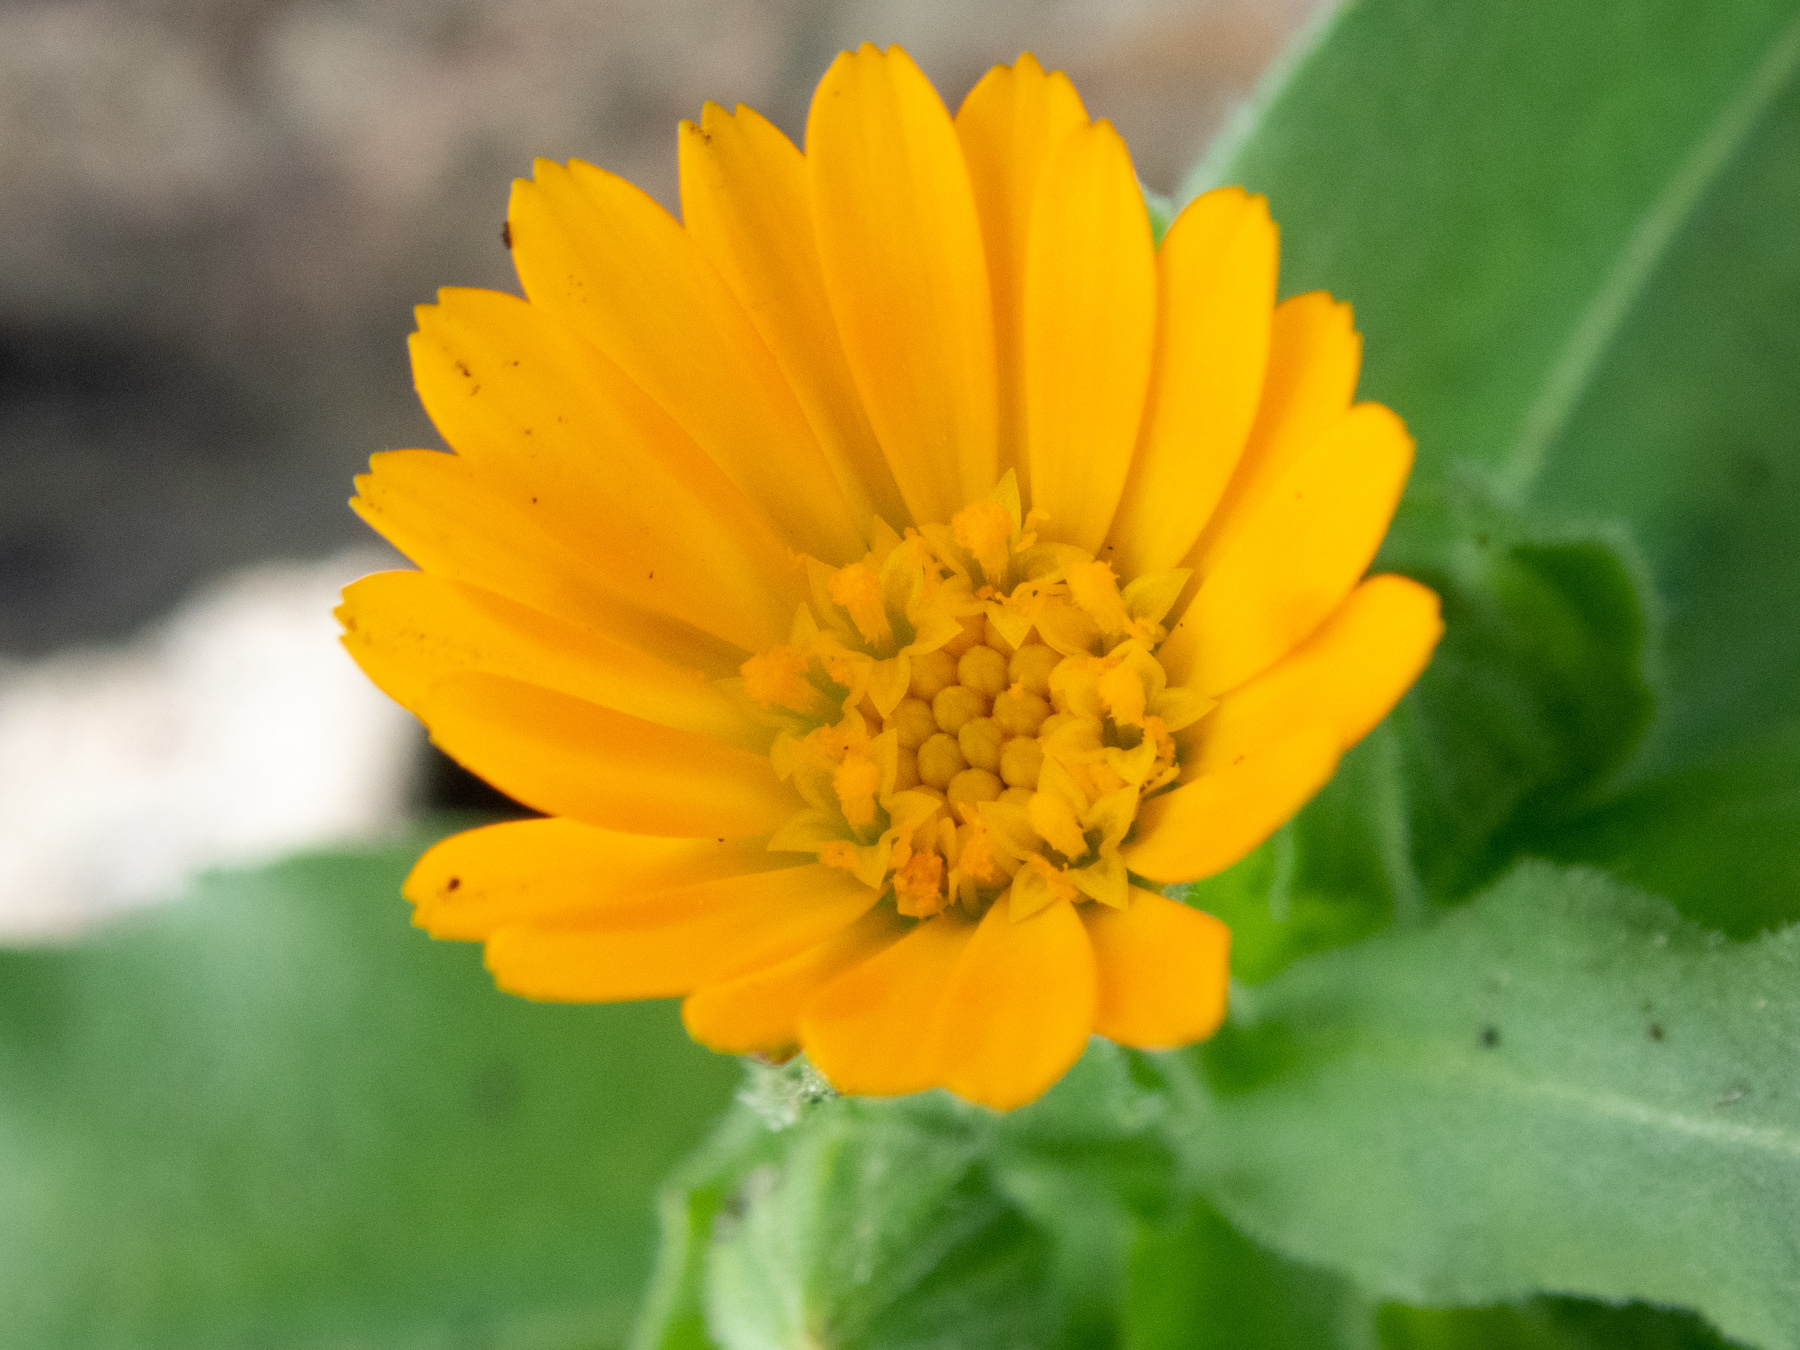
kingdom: Plantae
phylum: Tracheophyta
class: Magnoliopsida
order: Asterales
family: Asteraceae
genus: Calendula
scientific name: Calendula arvensis
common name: Field marigold
